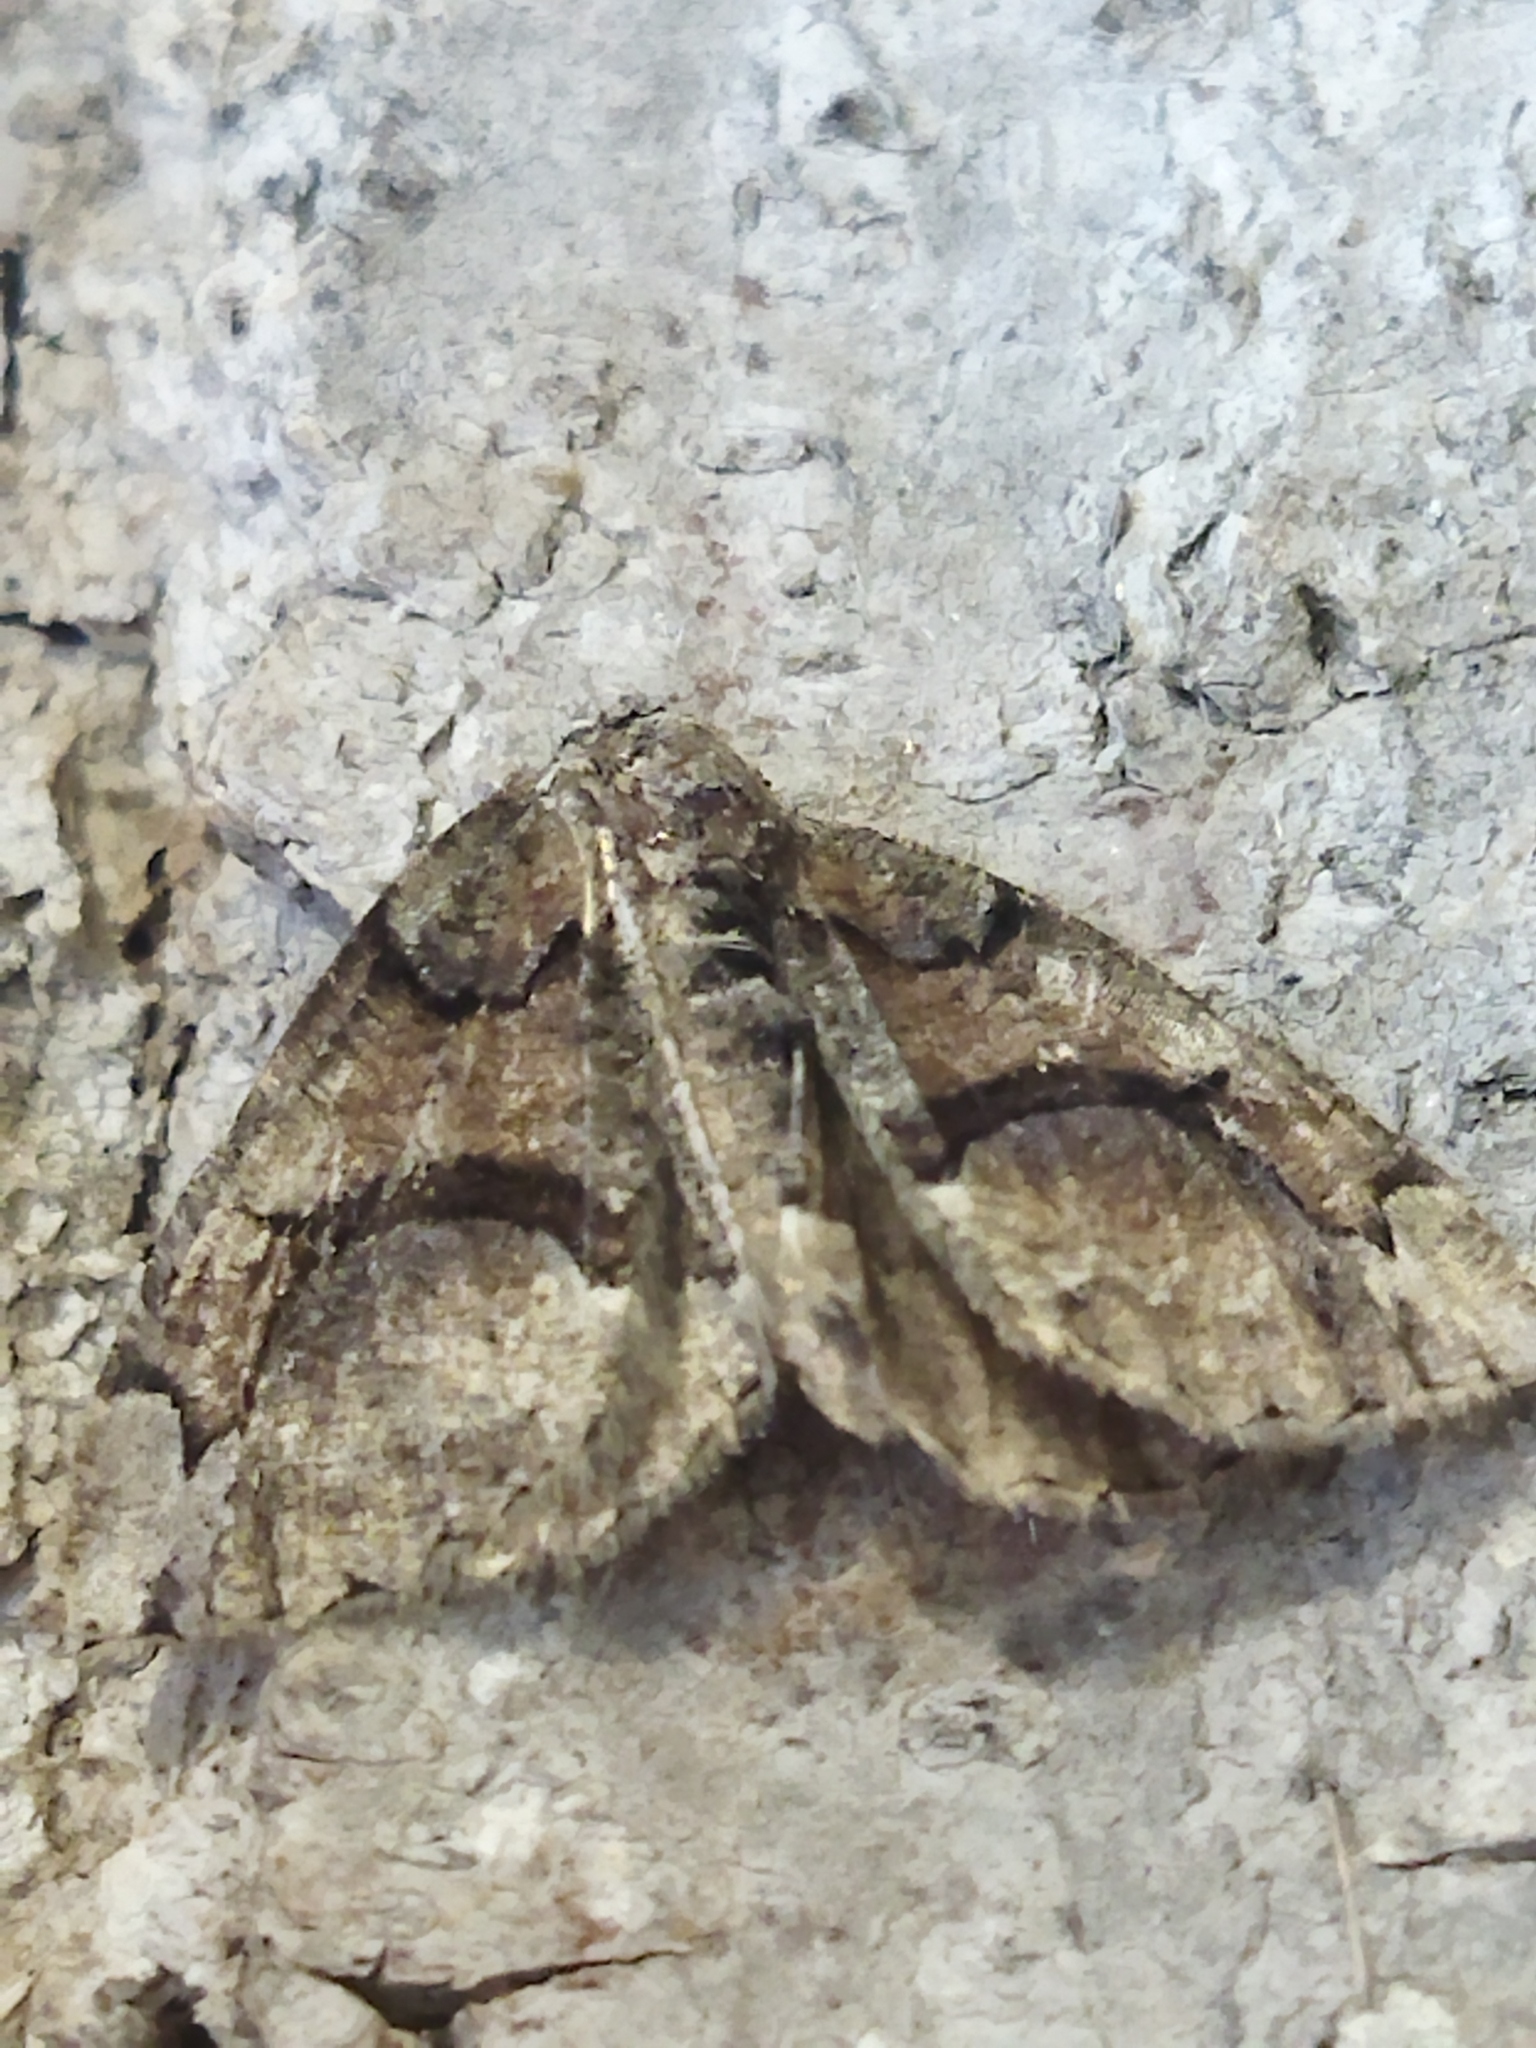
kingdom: Animalia
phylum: Arthropoda
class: Insecta
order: Lepidoptera
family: Geometridae
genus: Asovia
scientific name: Asovia maeoticaria
